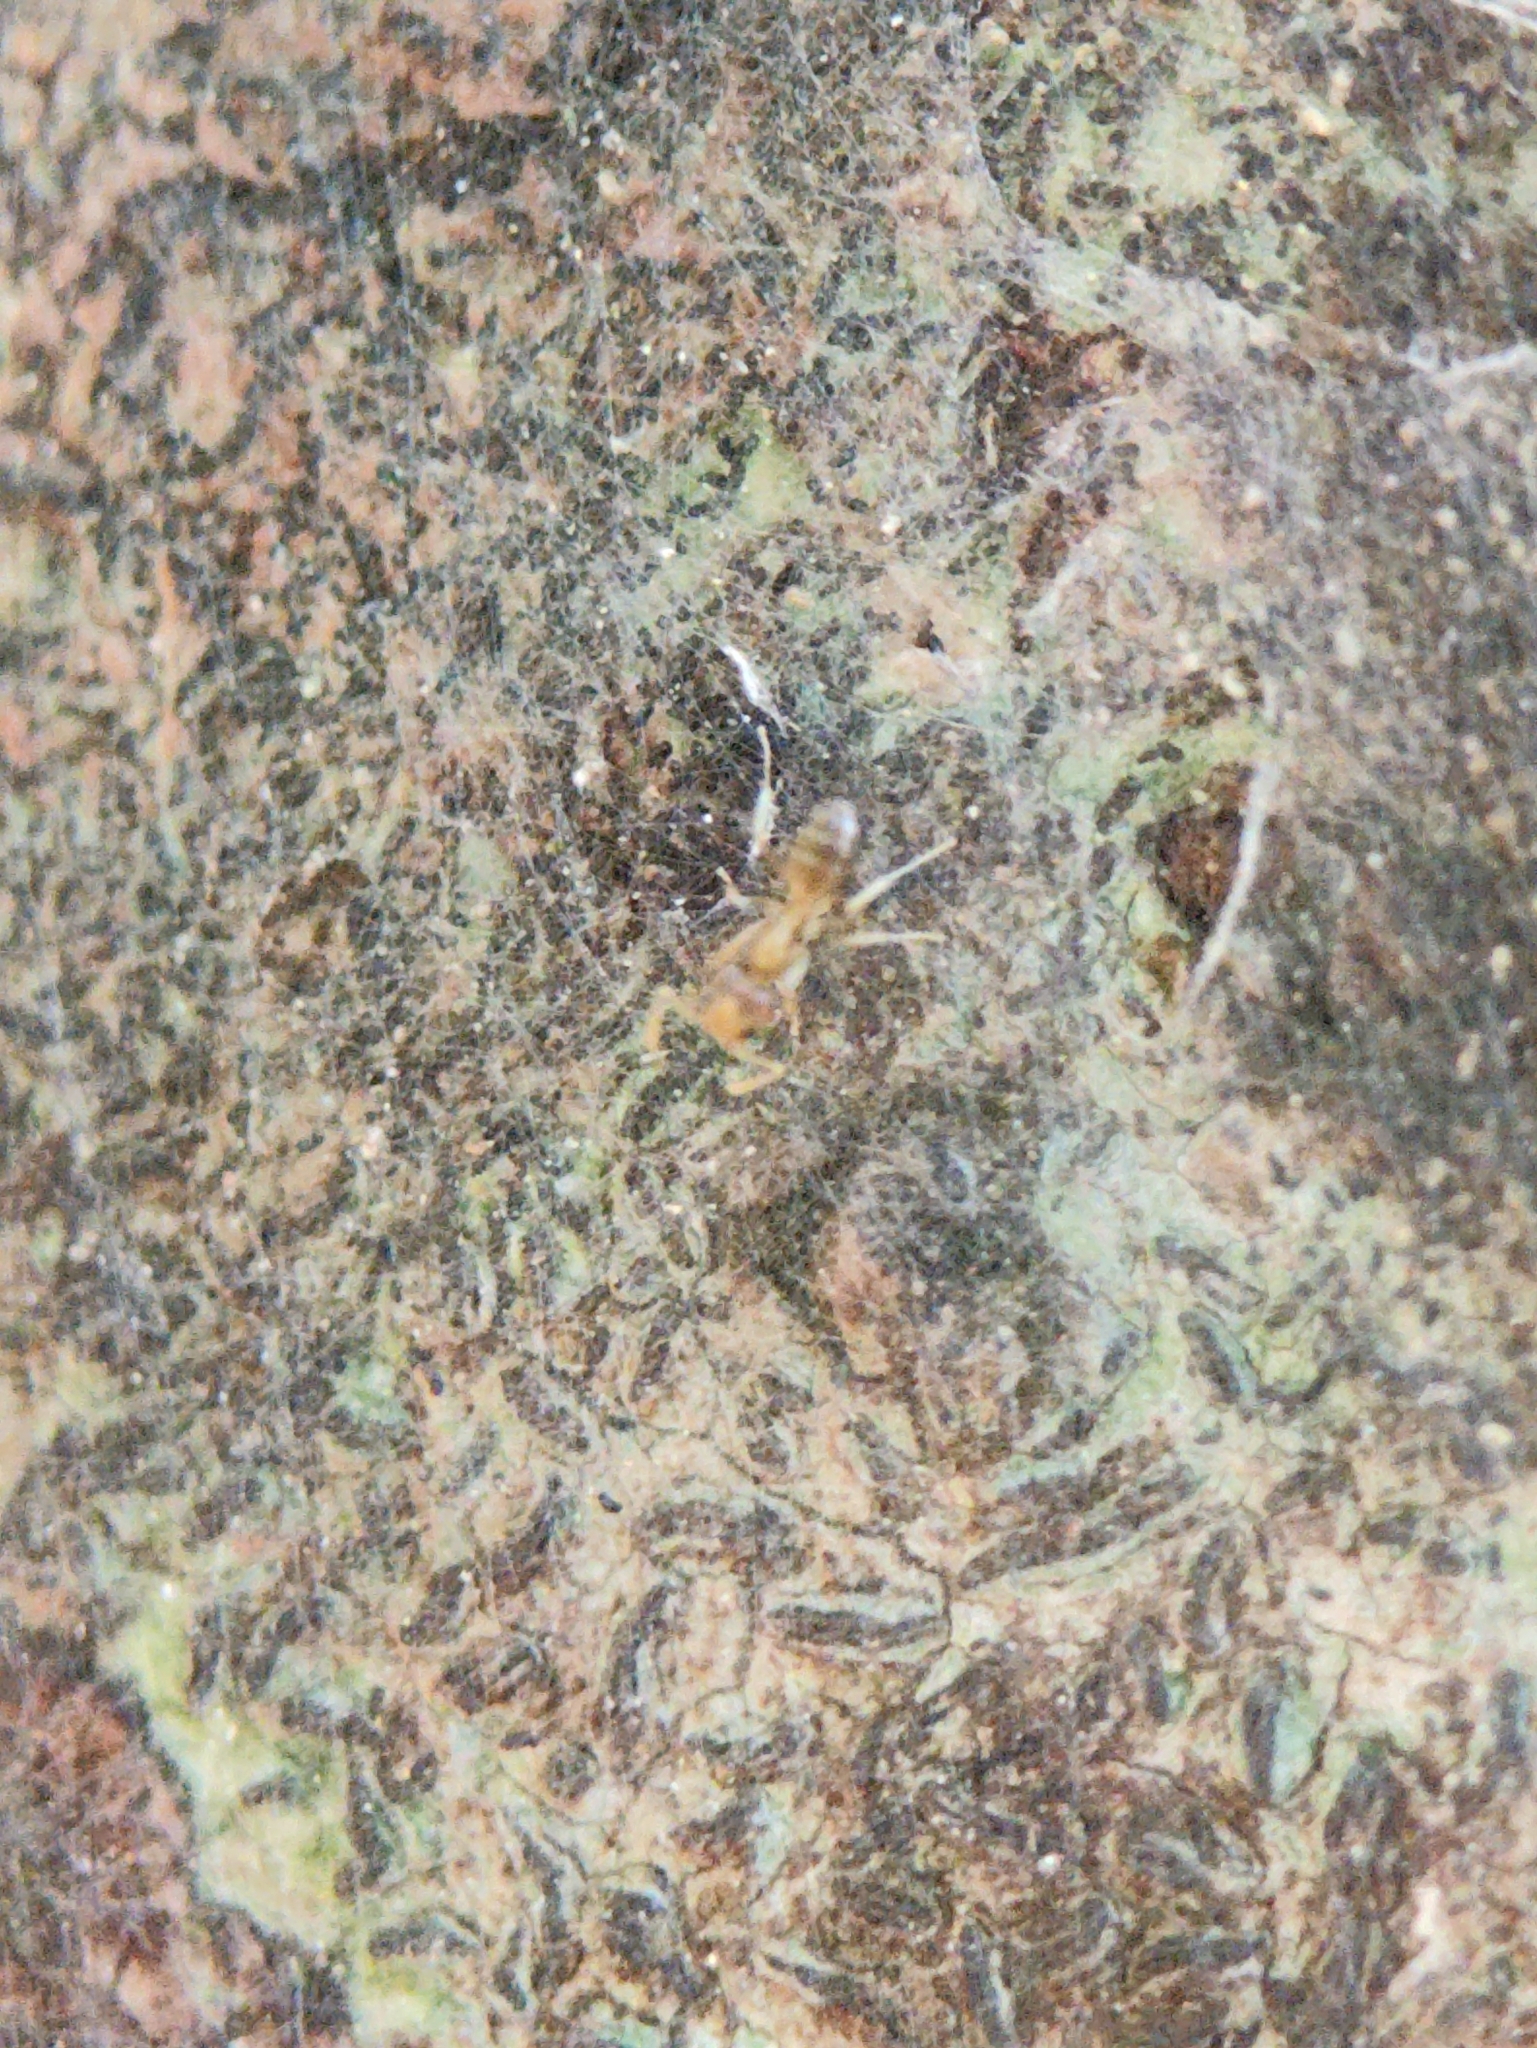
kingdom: Animalia
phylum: Arthropoda
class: Insecta
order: Hymenoptera
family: Formicidae
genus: Tapinoma
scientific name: Tapinoma indicum
